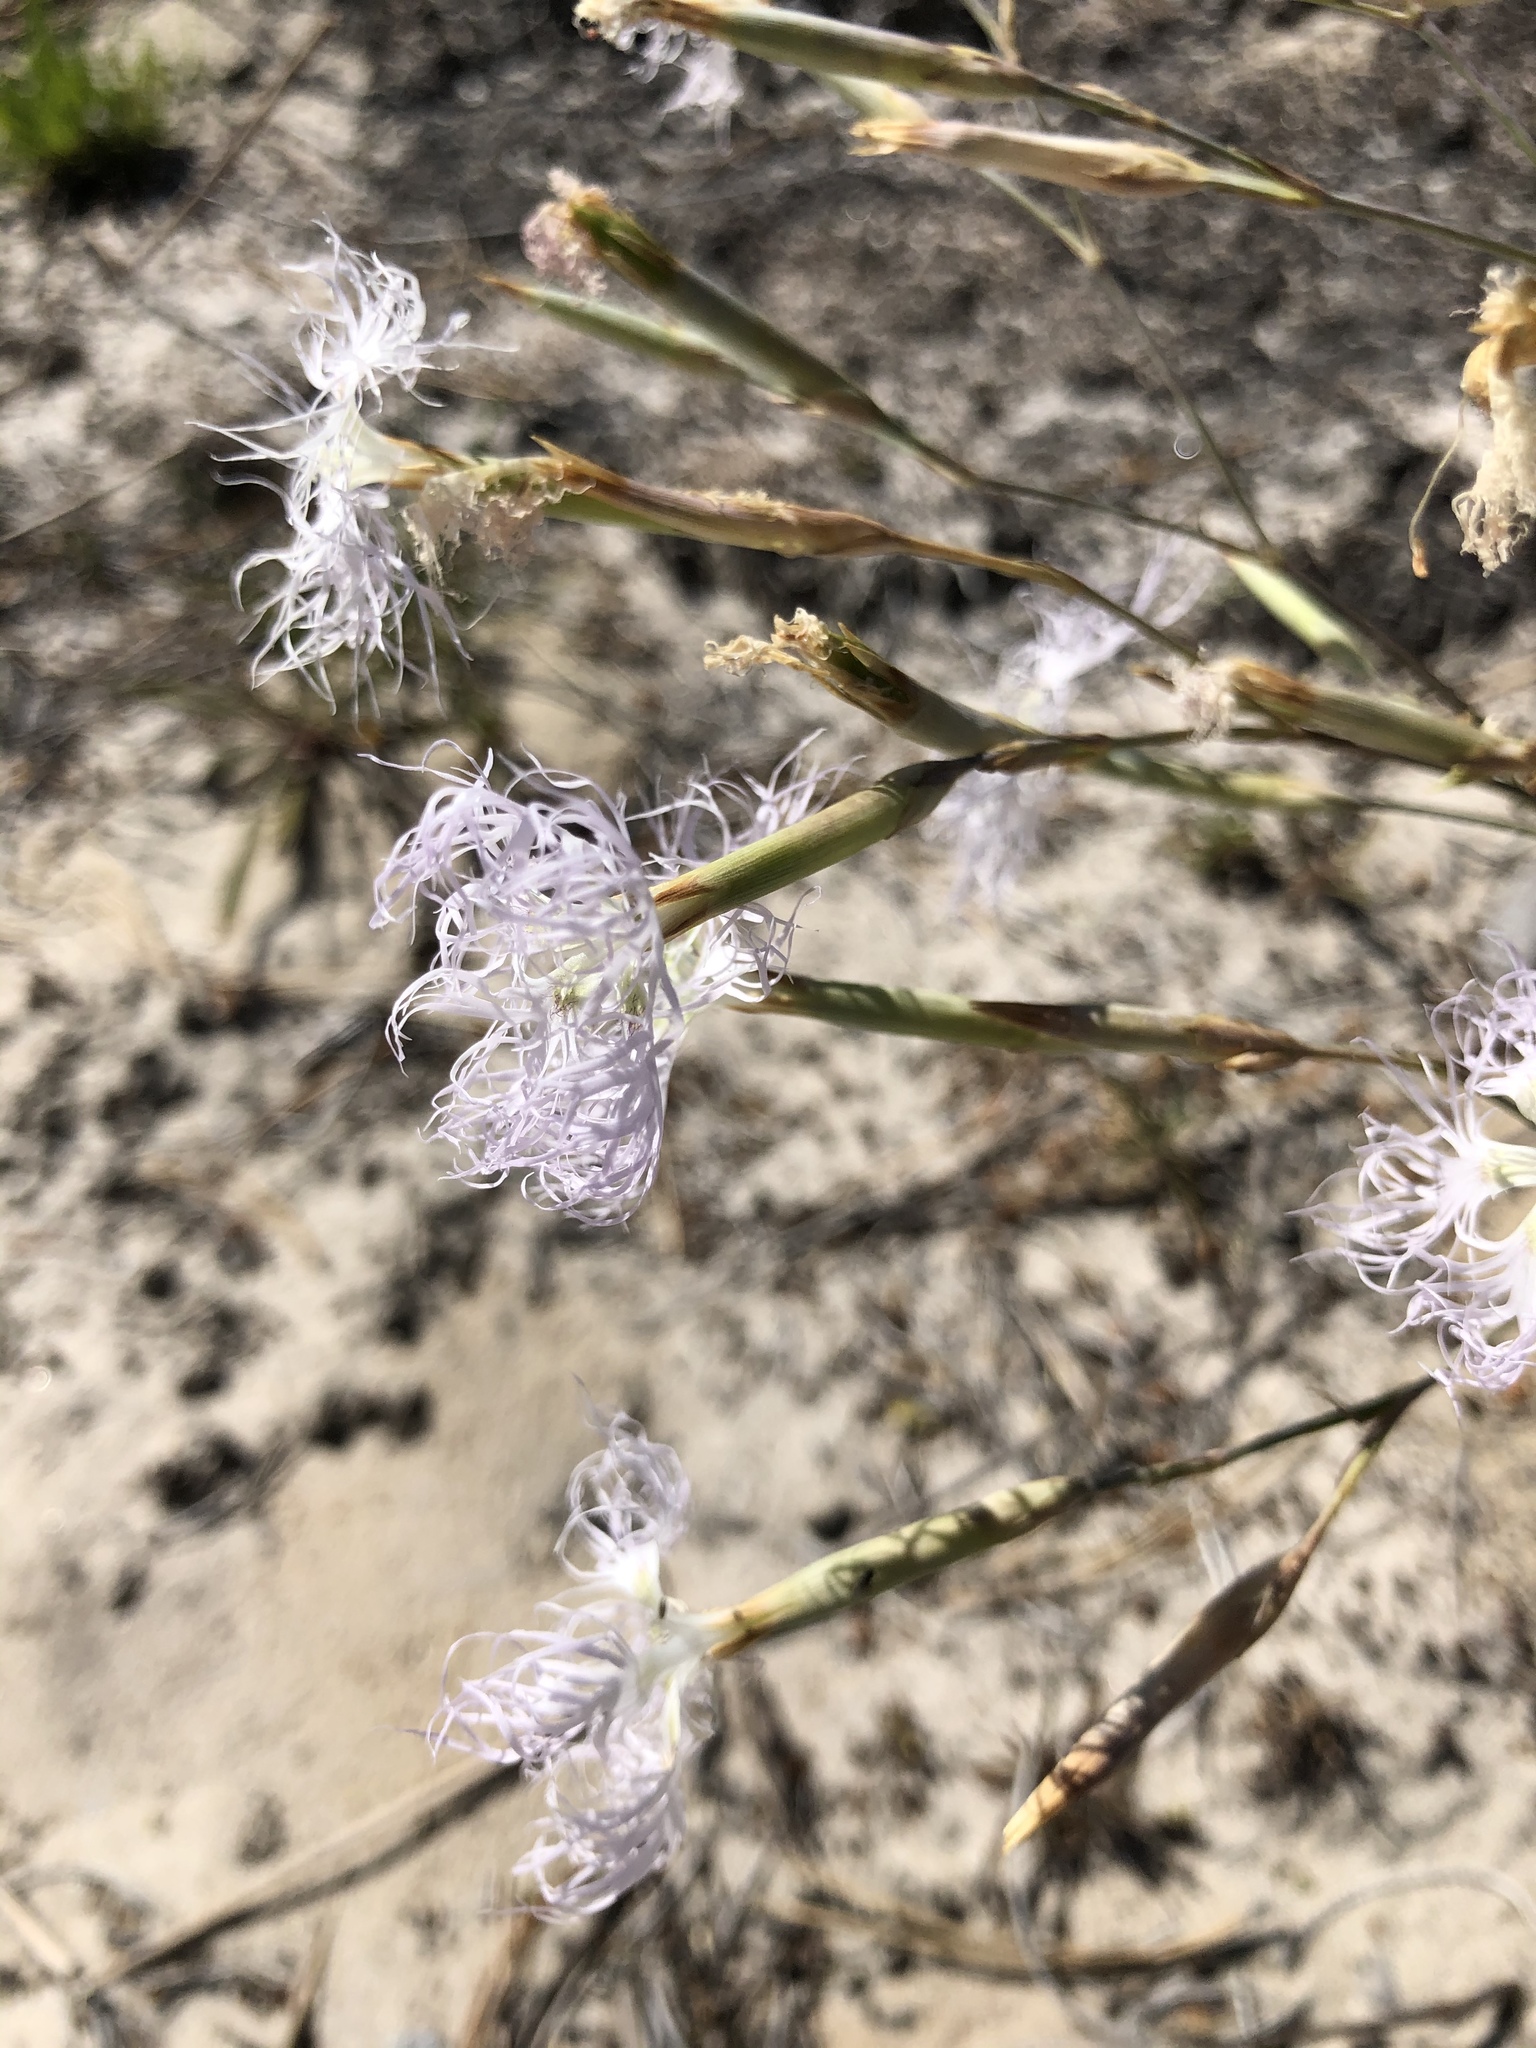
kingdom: Plantae
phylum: Tracheophyta
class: Magnoliopsida
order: Caryophyllales
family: Caryophyllaceae
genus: Dianthus
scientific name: Dianthus superbus
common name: Fringed pink
